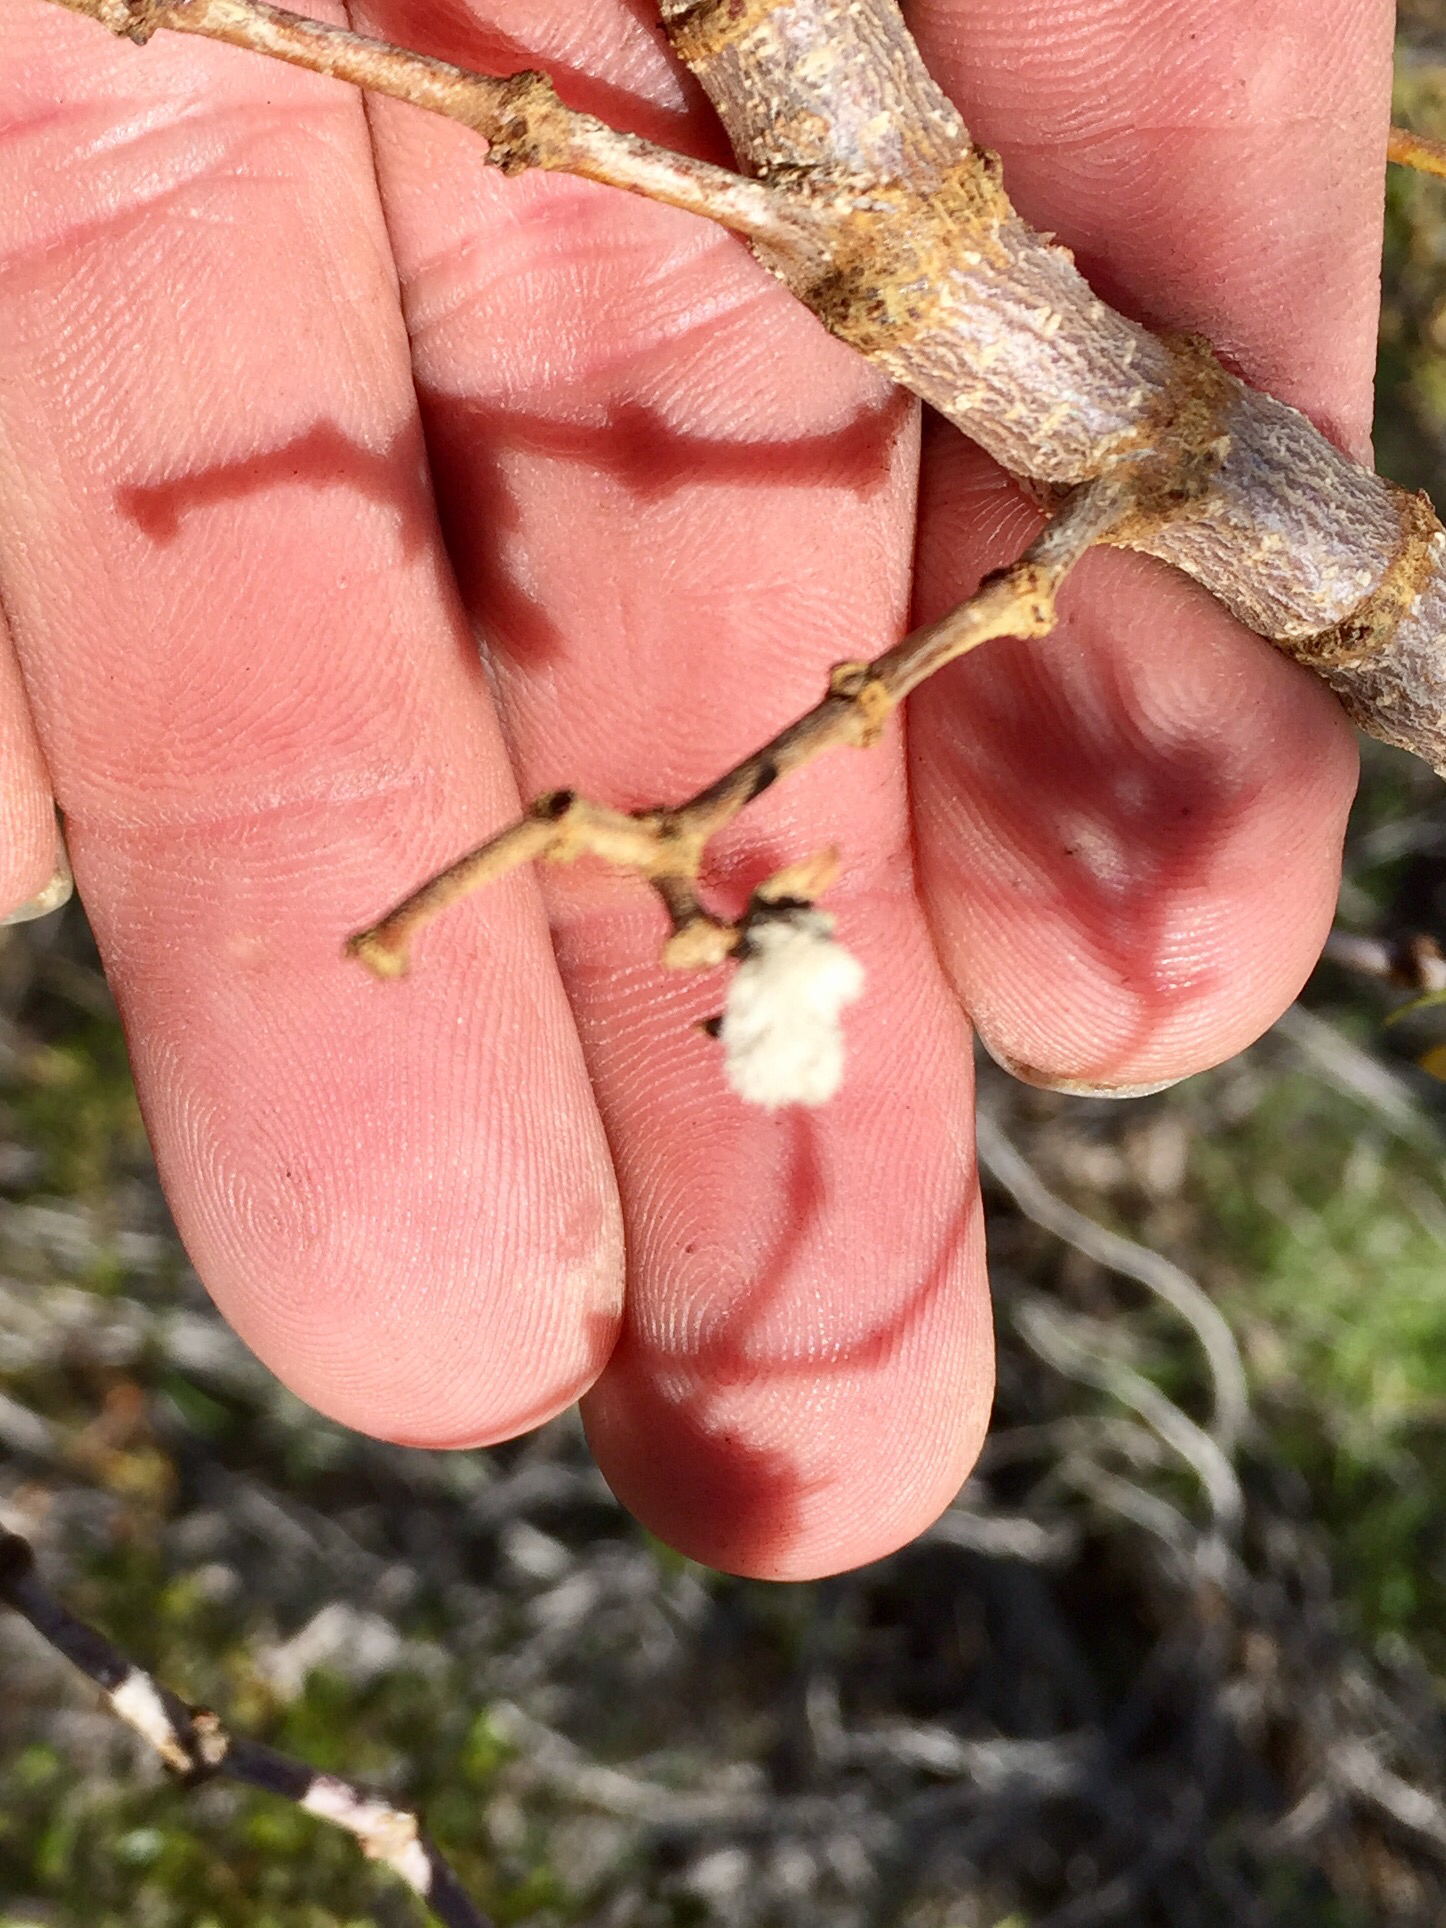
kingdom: Animalia
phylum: Arthropoda
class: Insecta
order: Diptera
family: Cecidomyiidae
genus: Asphondylia
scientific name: Asphondylia villosa
